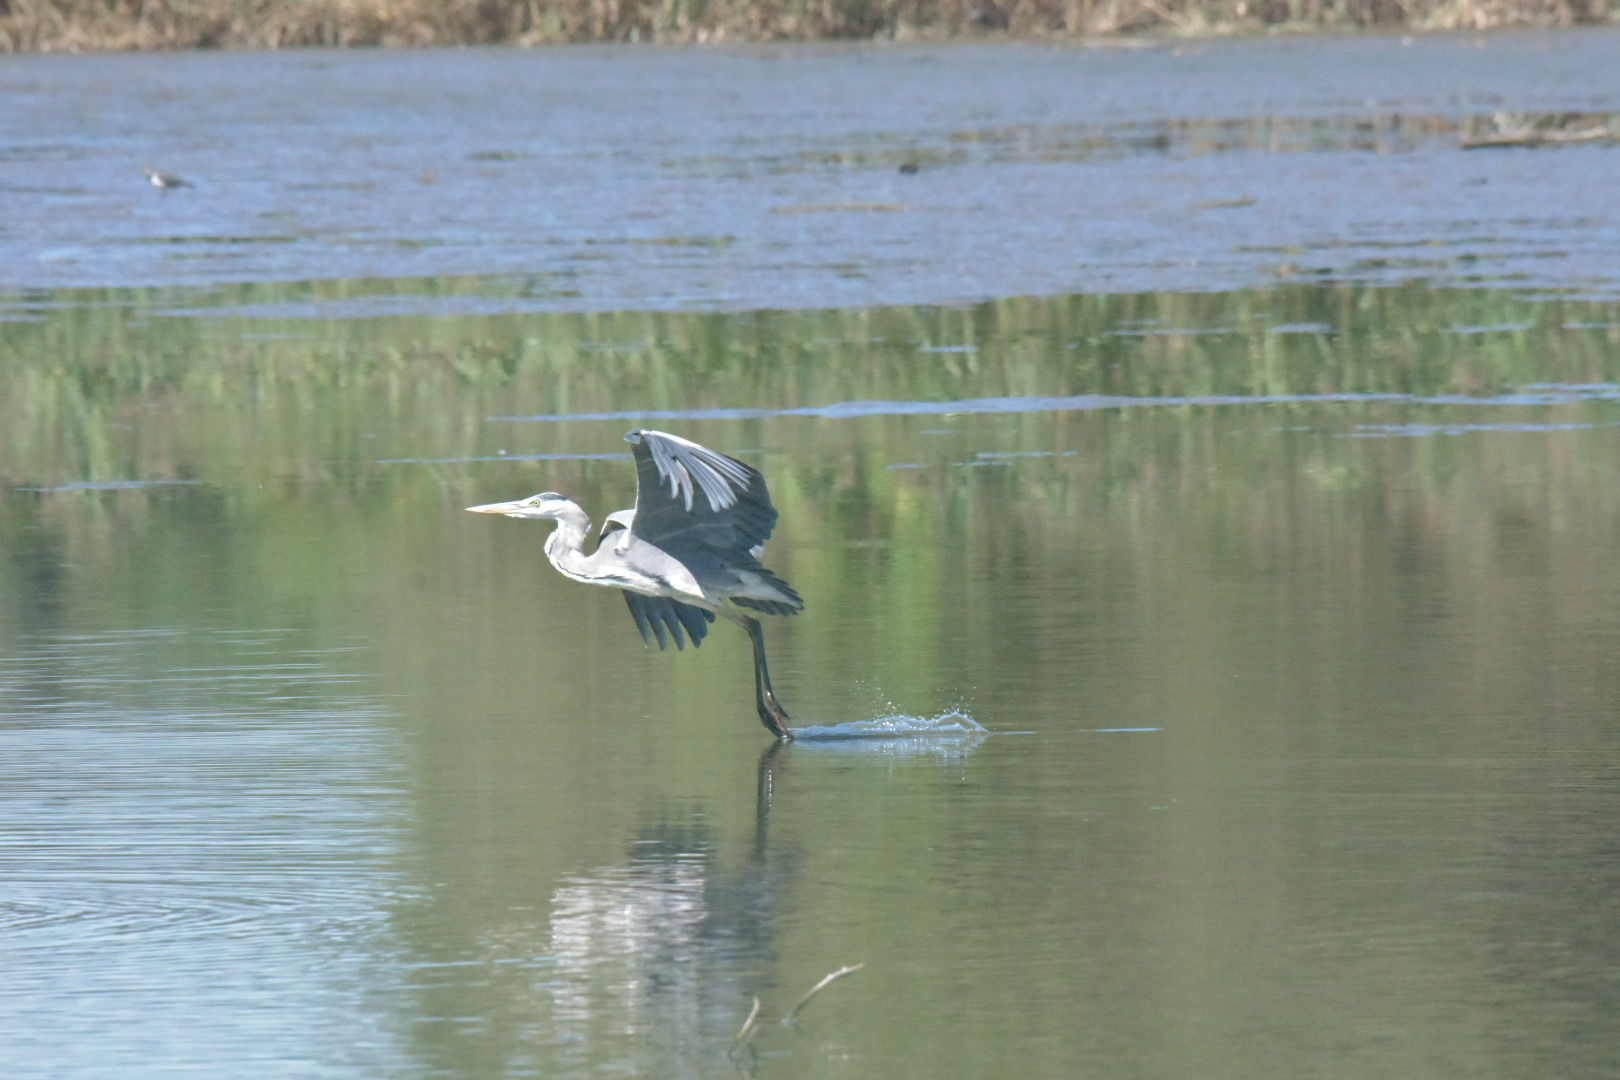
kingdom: Animalia
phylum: Chordata
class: Aves
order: Pelecaniformes
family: Ardeidae
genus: Ardea
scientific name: Ardea cinerea
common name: Grey heron
